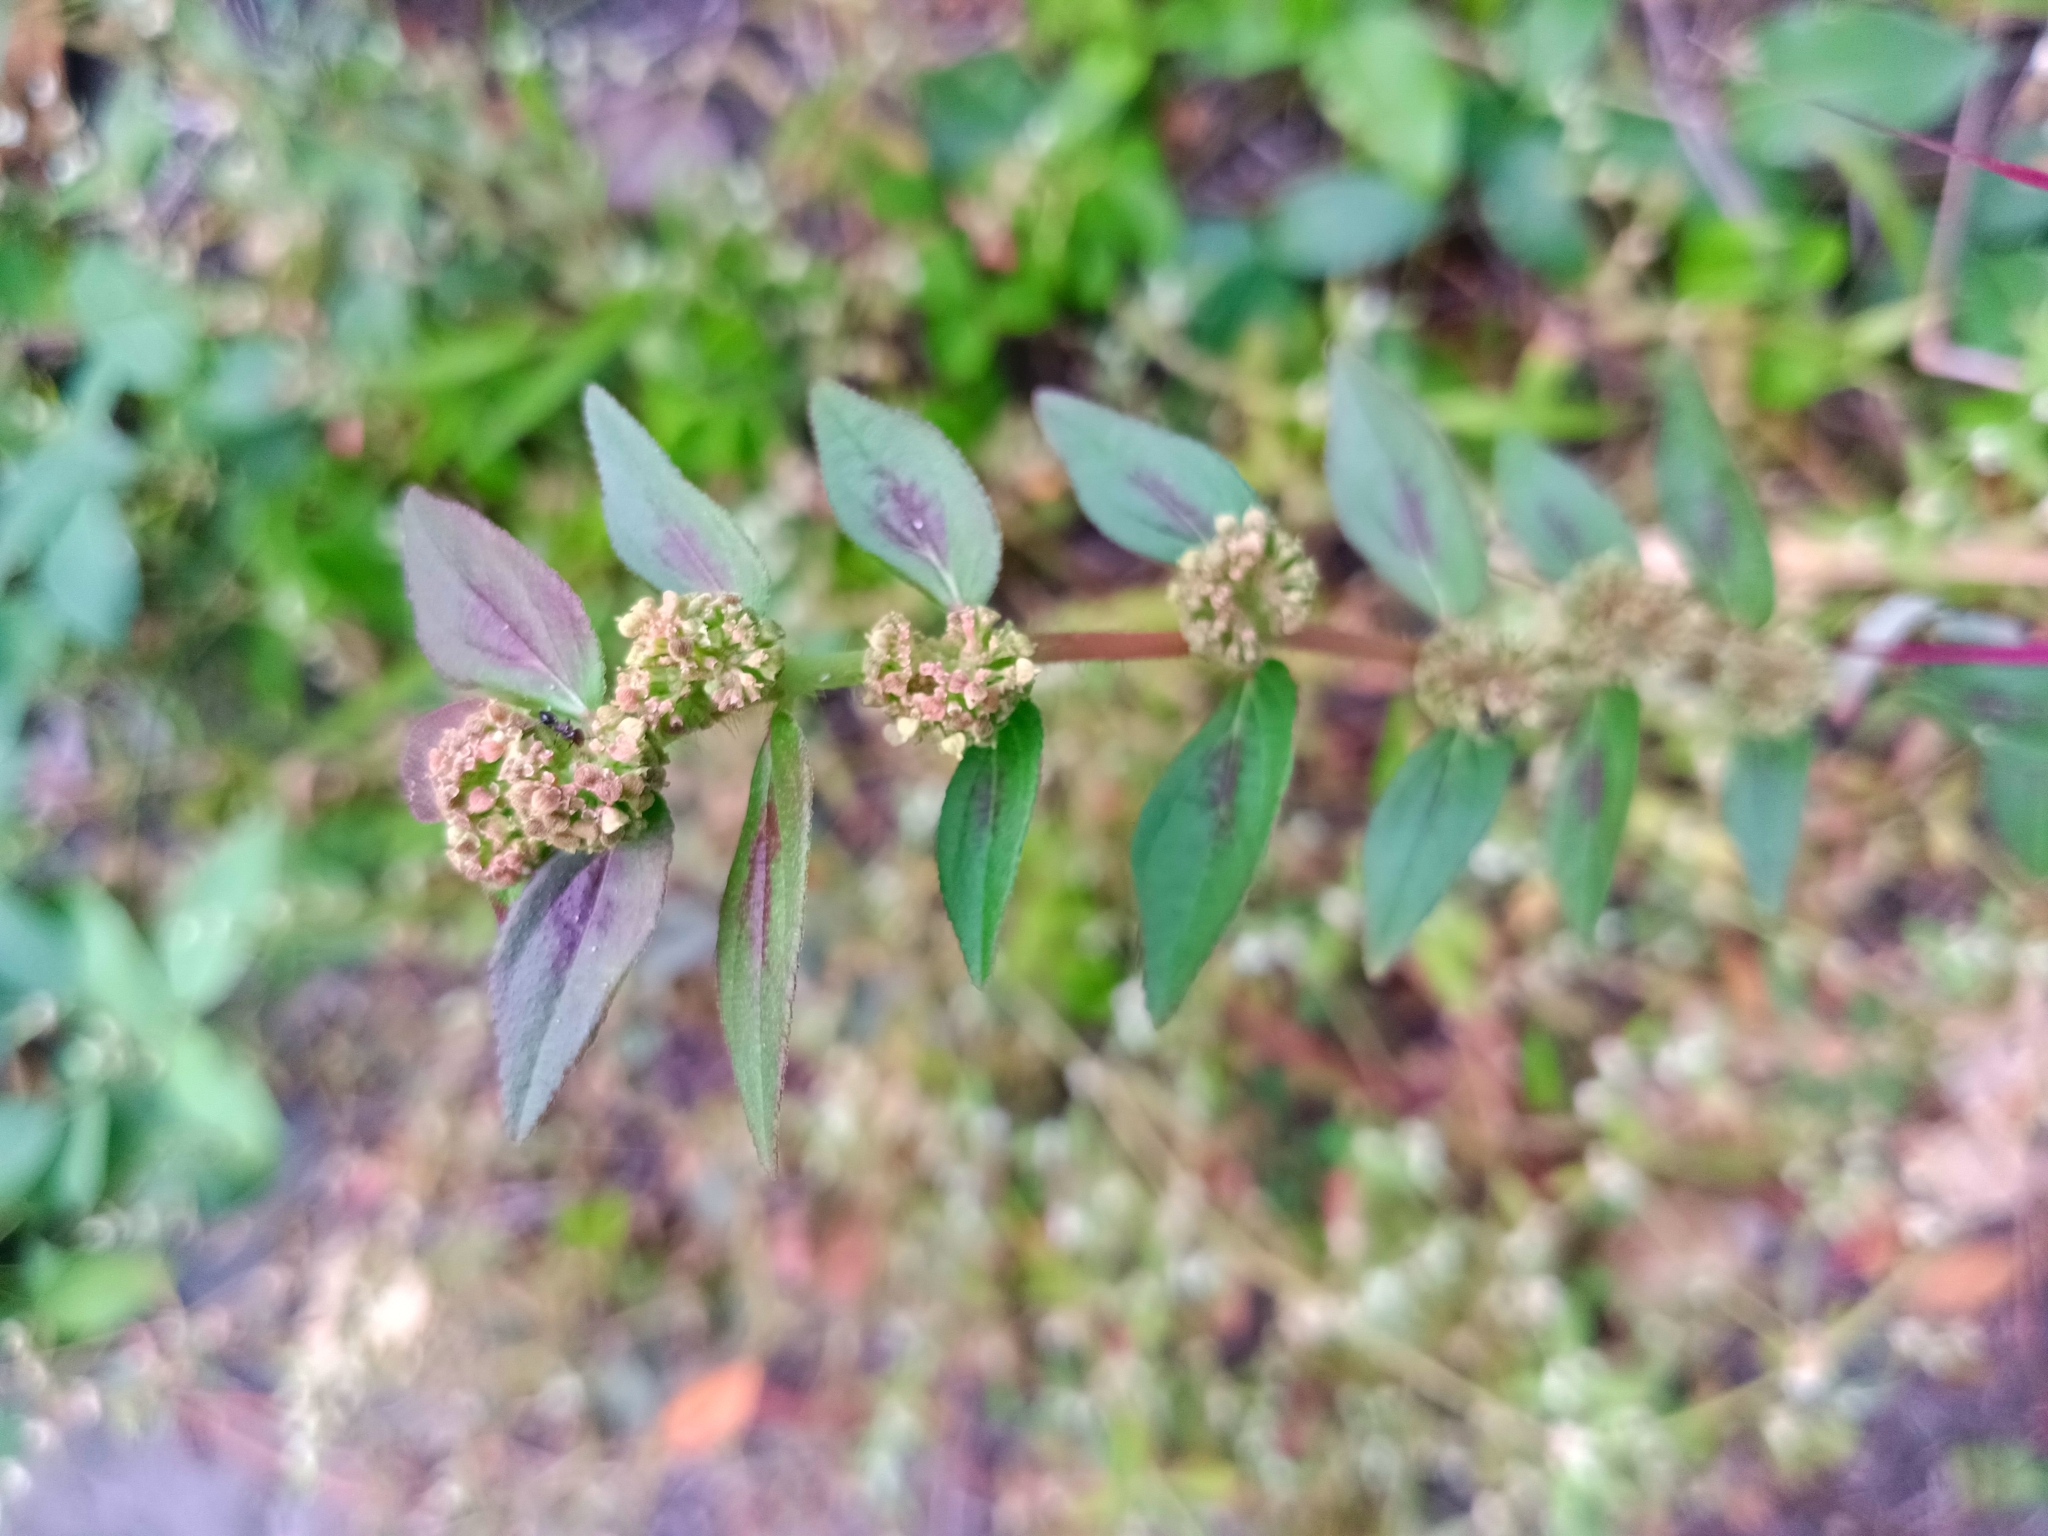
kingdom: Plantae
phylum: Tracheophyta
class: Magnoliopsida
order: Malpighiales
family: Euphorbiaceae
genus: Euphorbia
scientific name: Euphorbia hirta
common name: Pillpod sandmat
